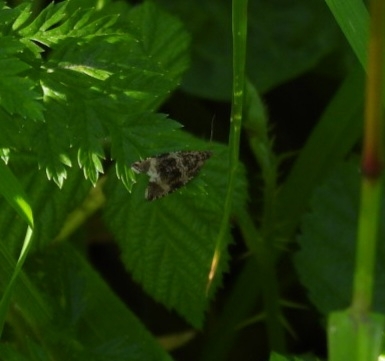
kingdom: Animalia
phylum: Arthropoda
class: Insecta
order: Lepidoptera
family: Tortricidae
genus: Syricoris
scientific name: Syricoris lacunana
